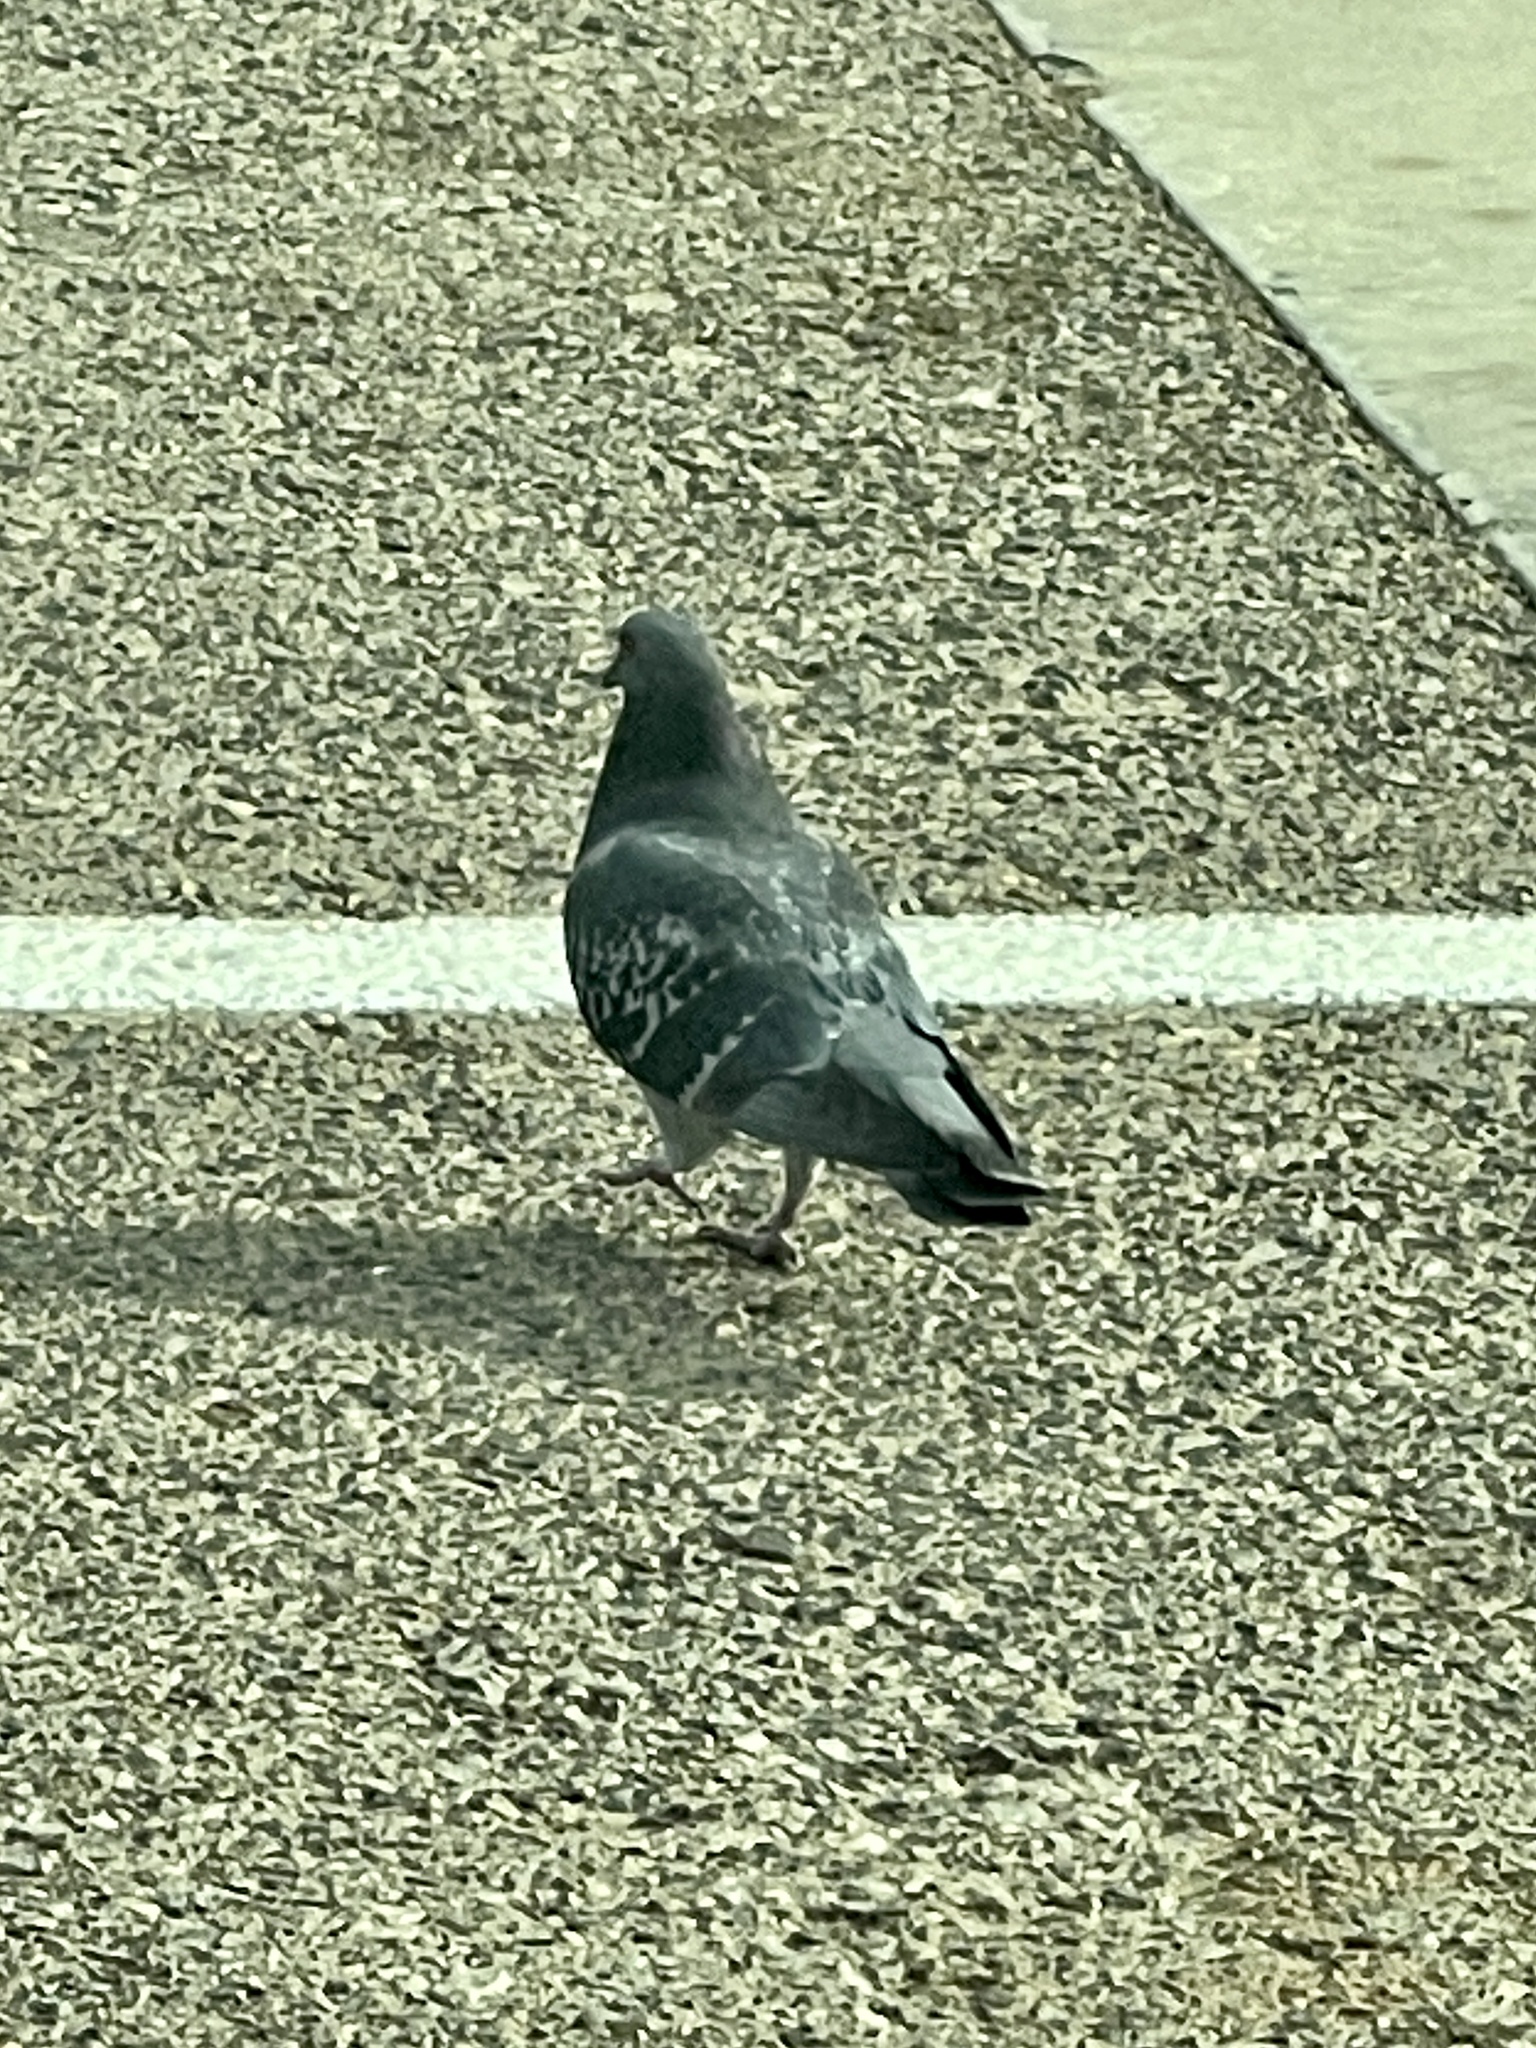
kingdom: Animalia
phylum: Chordata
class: Aves
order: Columbiformes
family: Columbidae
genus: Columba
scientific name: Columba livia
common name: Rock pigeon
